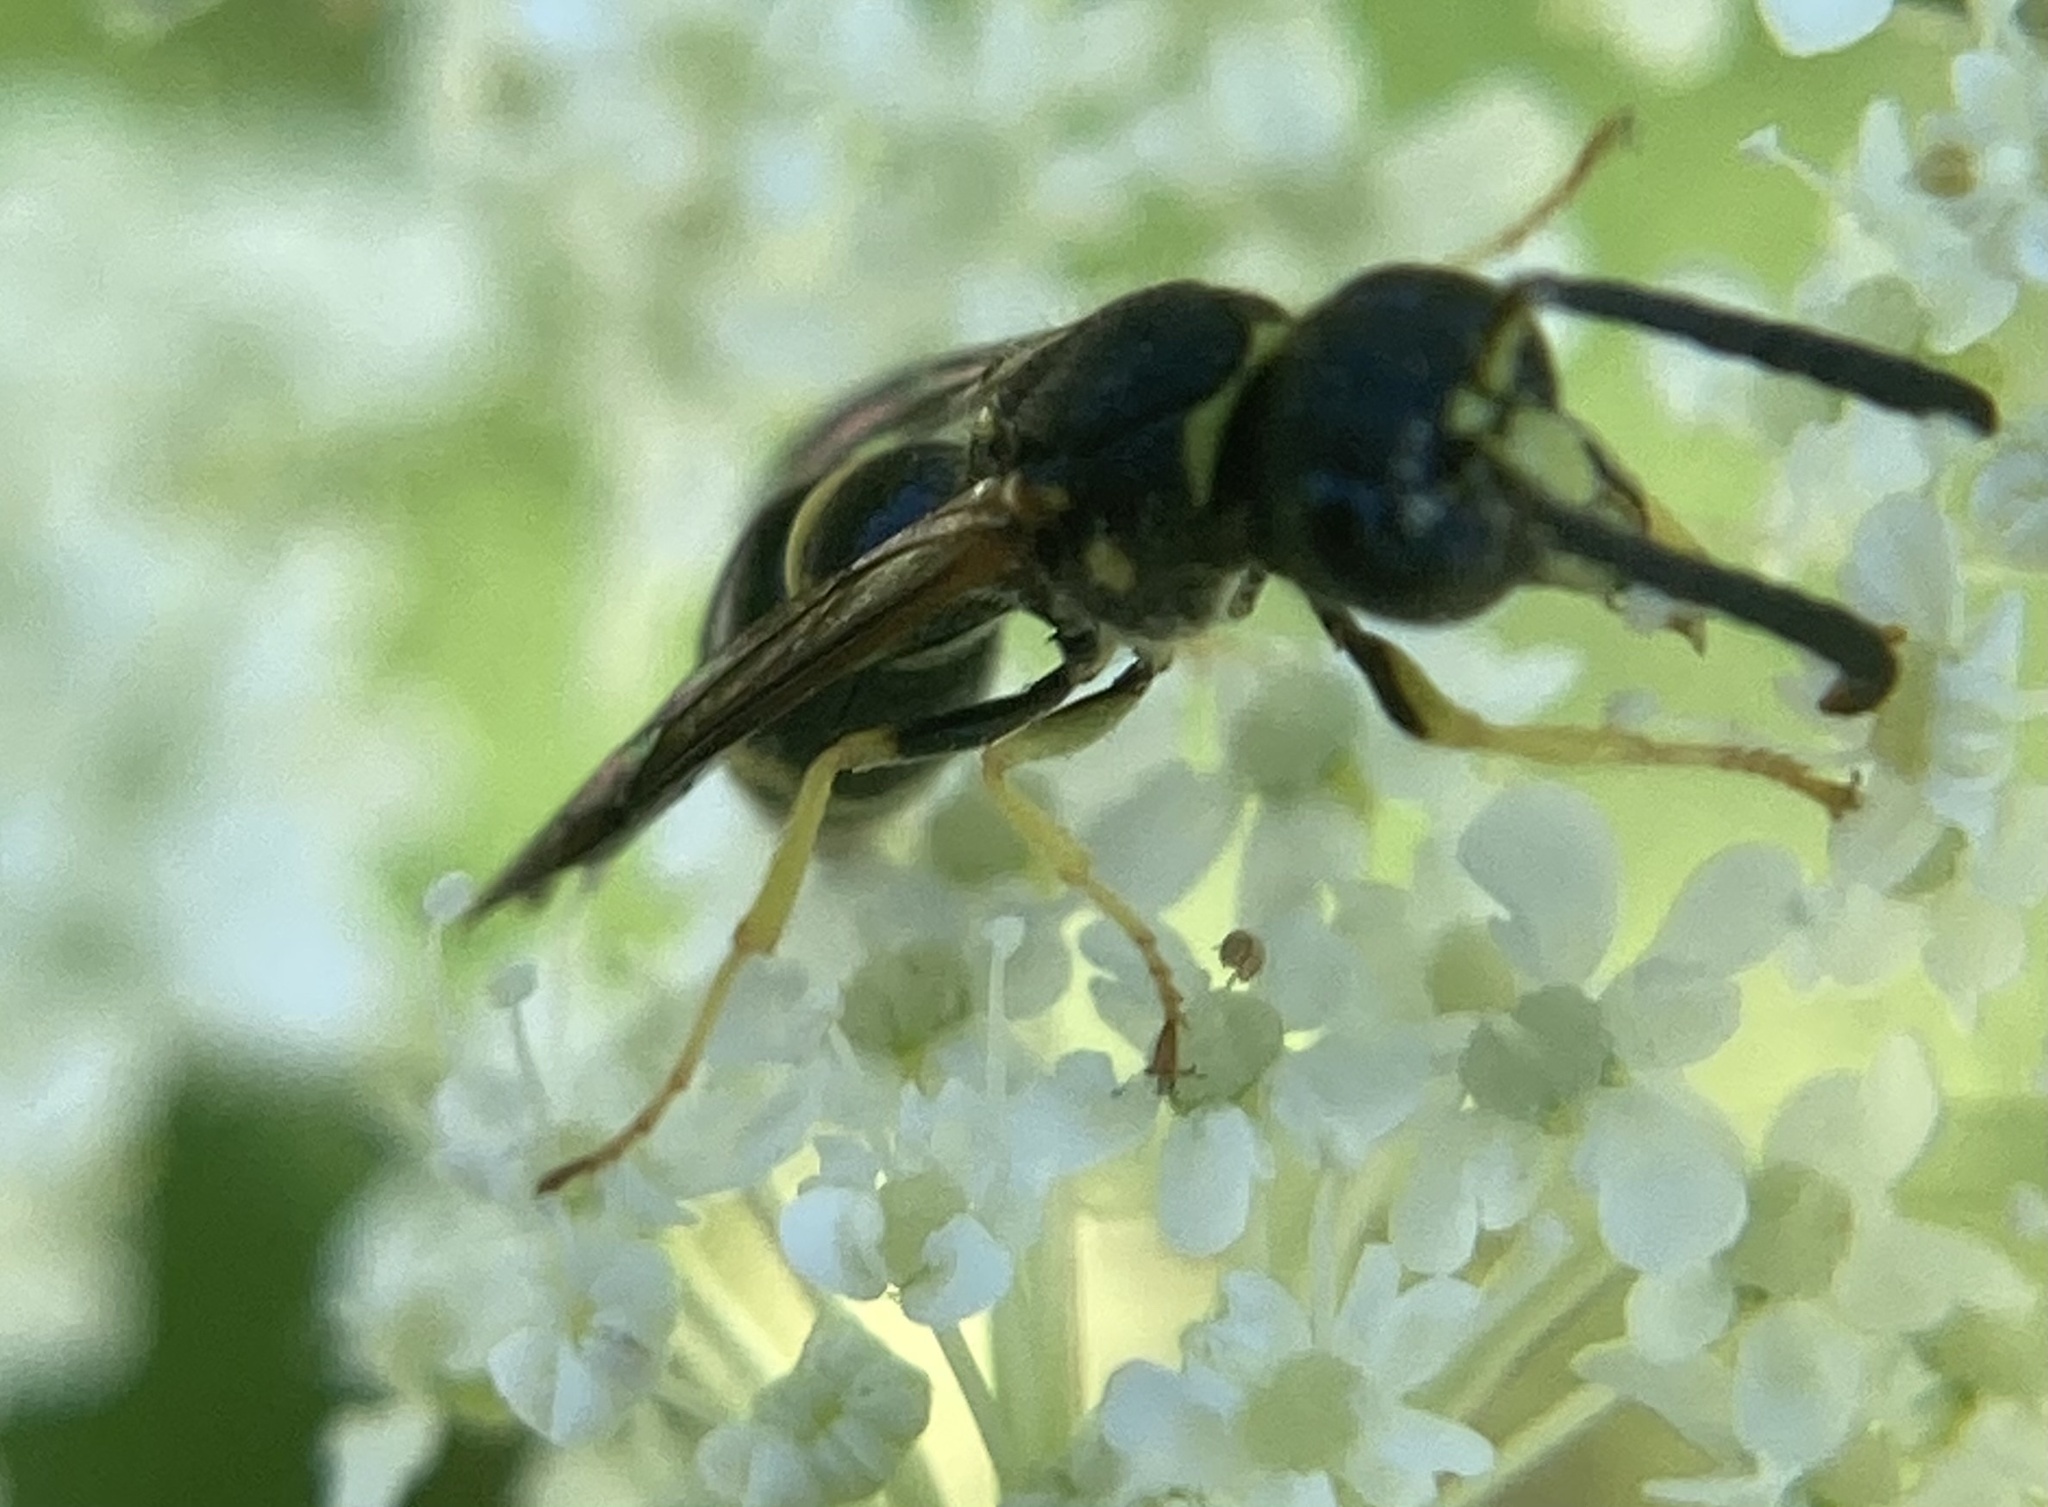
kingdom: Animalia
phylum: Arthropoda
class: Insecta
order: Hymenoptera
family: Vespidae
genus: Ancistrocerus
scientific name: Ancistrocerus adiabatus
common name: Bramble mason wasp
